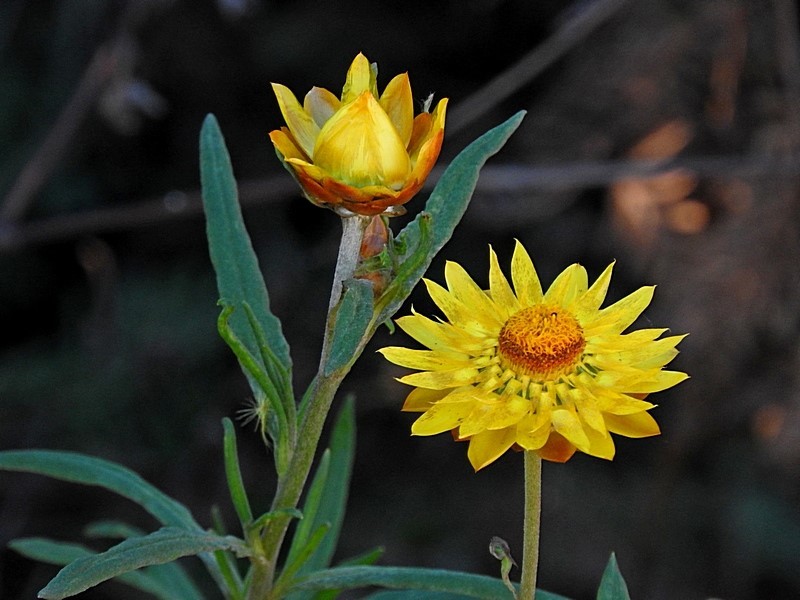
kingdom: Plantae
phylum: Tracheophyta
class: Magnoliopsida
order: Asterales
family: Asteraceae
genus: Xerochrysum
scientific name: Xerochrysum bracteatum
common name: Bracted strawflower
